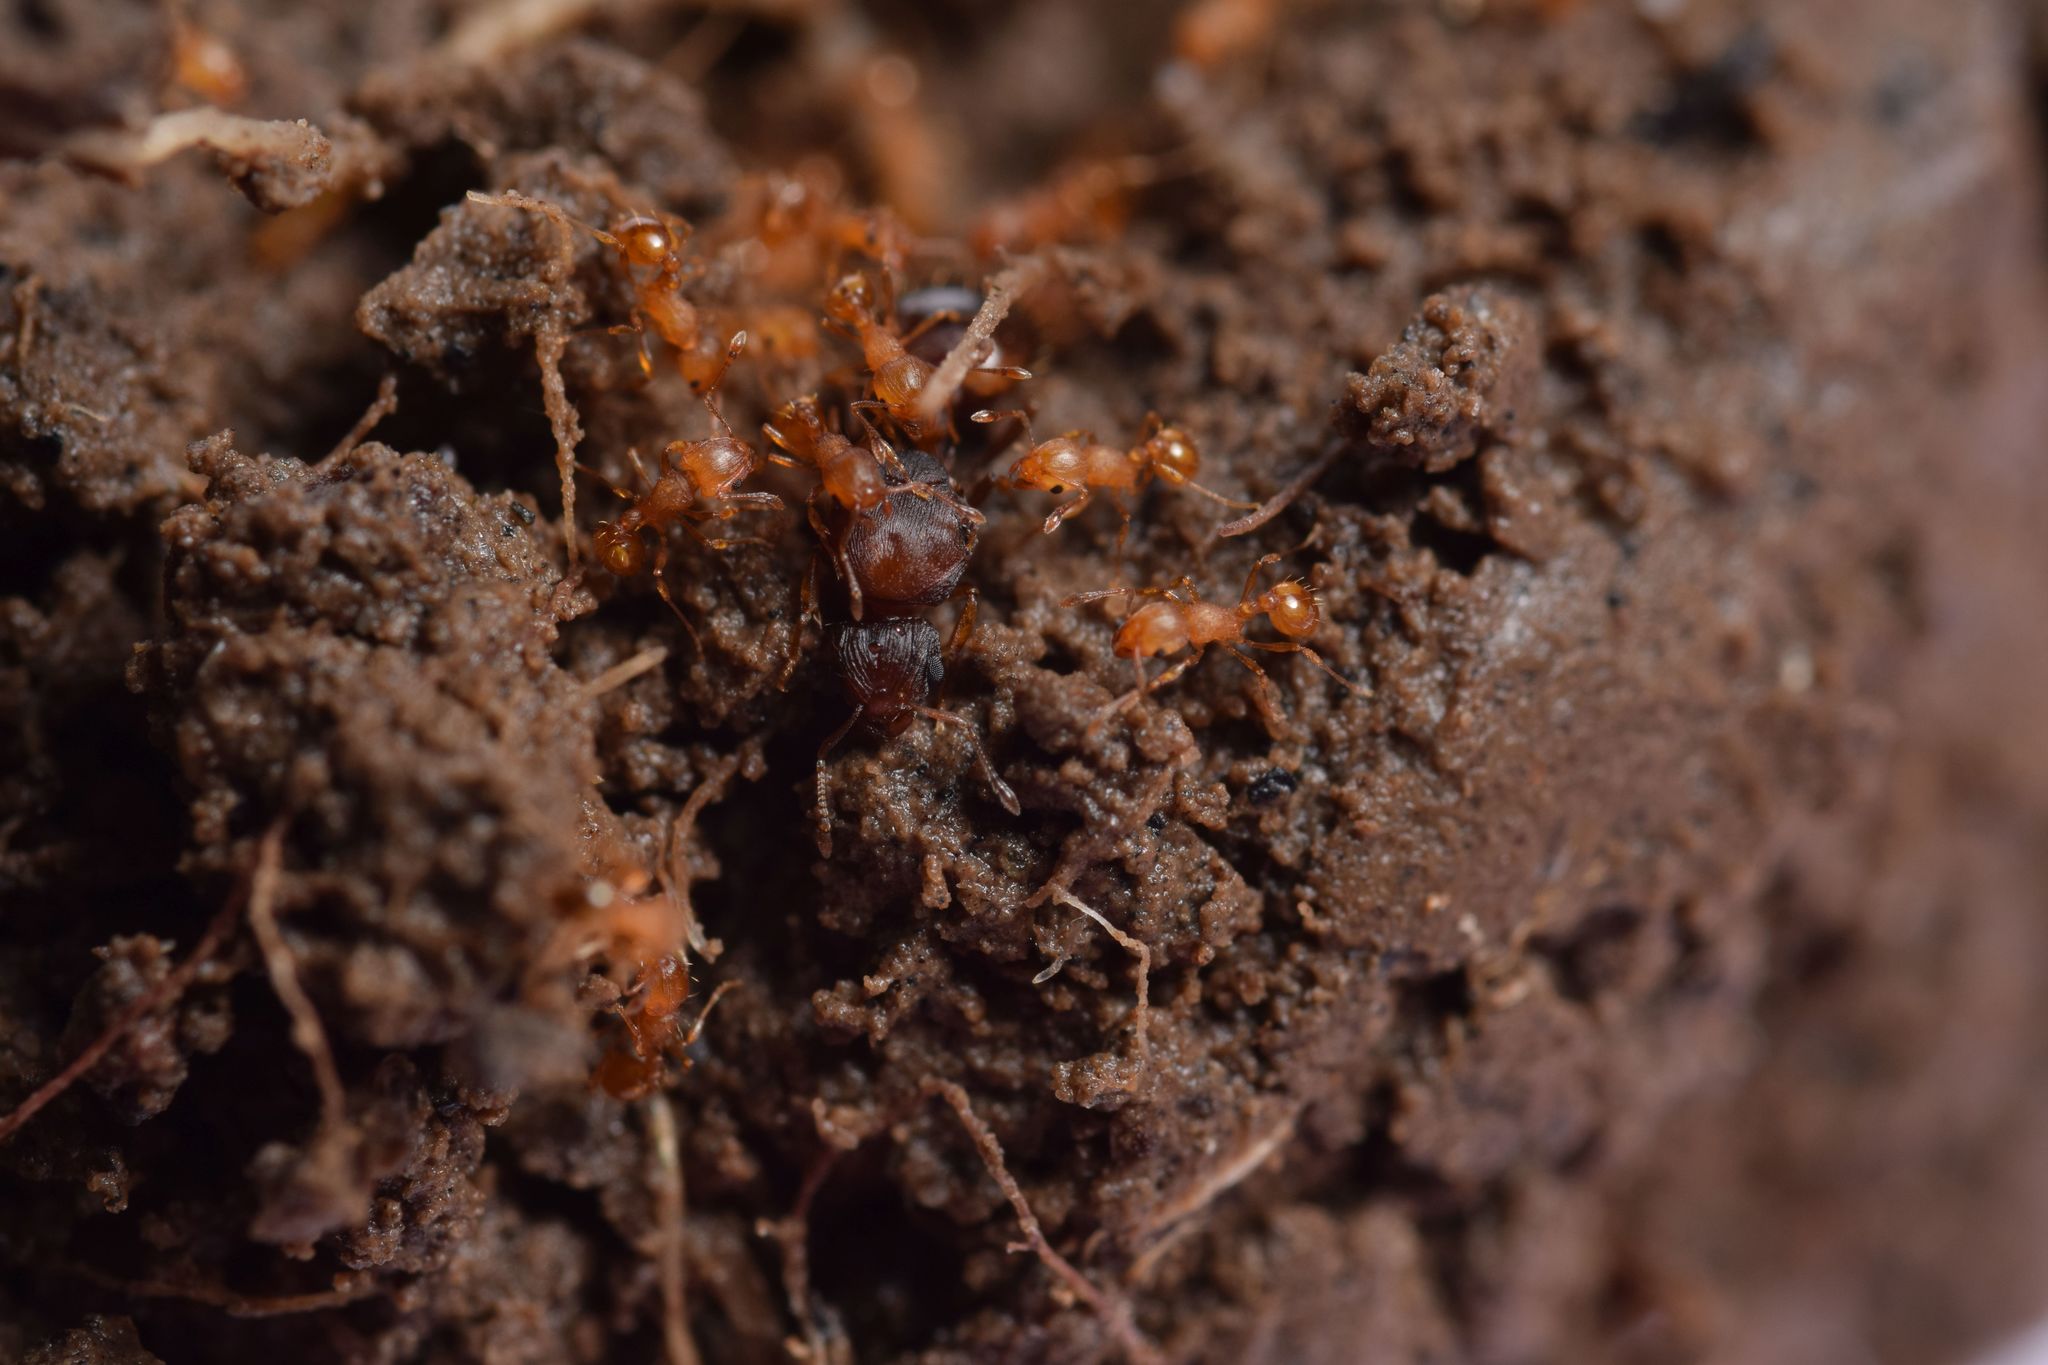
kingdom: Animalia
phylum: Arthropoda
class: Insecta
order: Hymenoptera
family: Formicidae
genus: Wasmannia
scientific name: Wasmannia auropunctata
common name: Little fire ant
